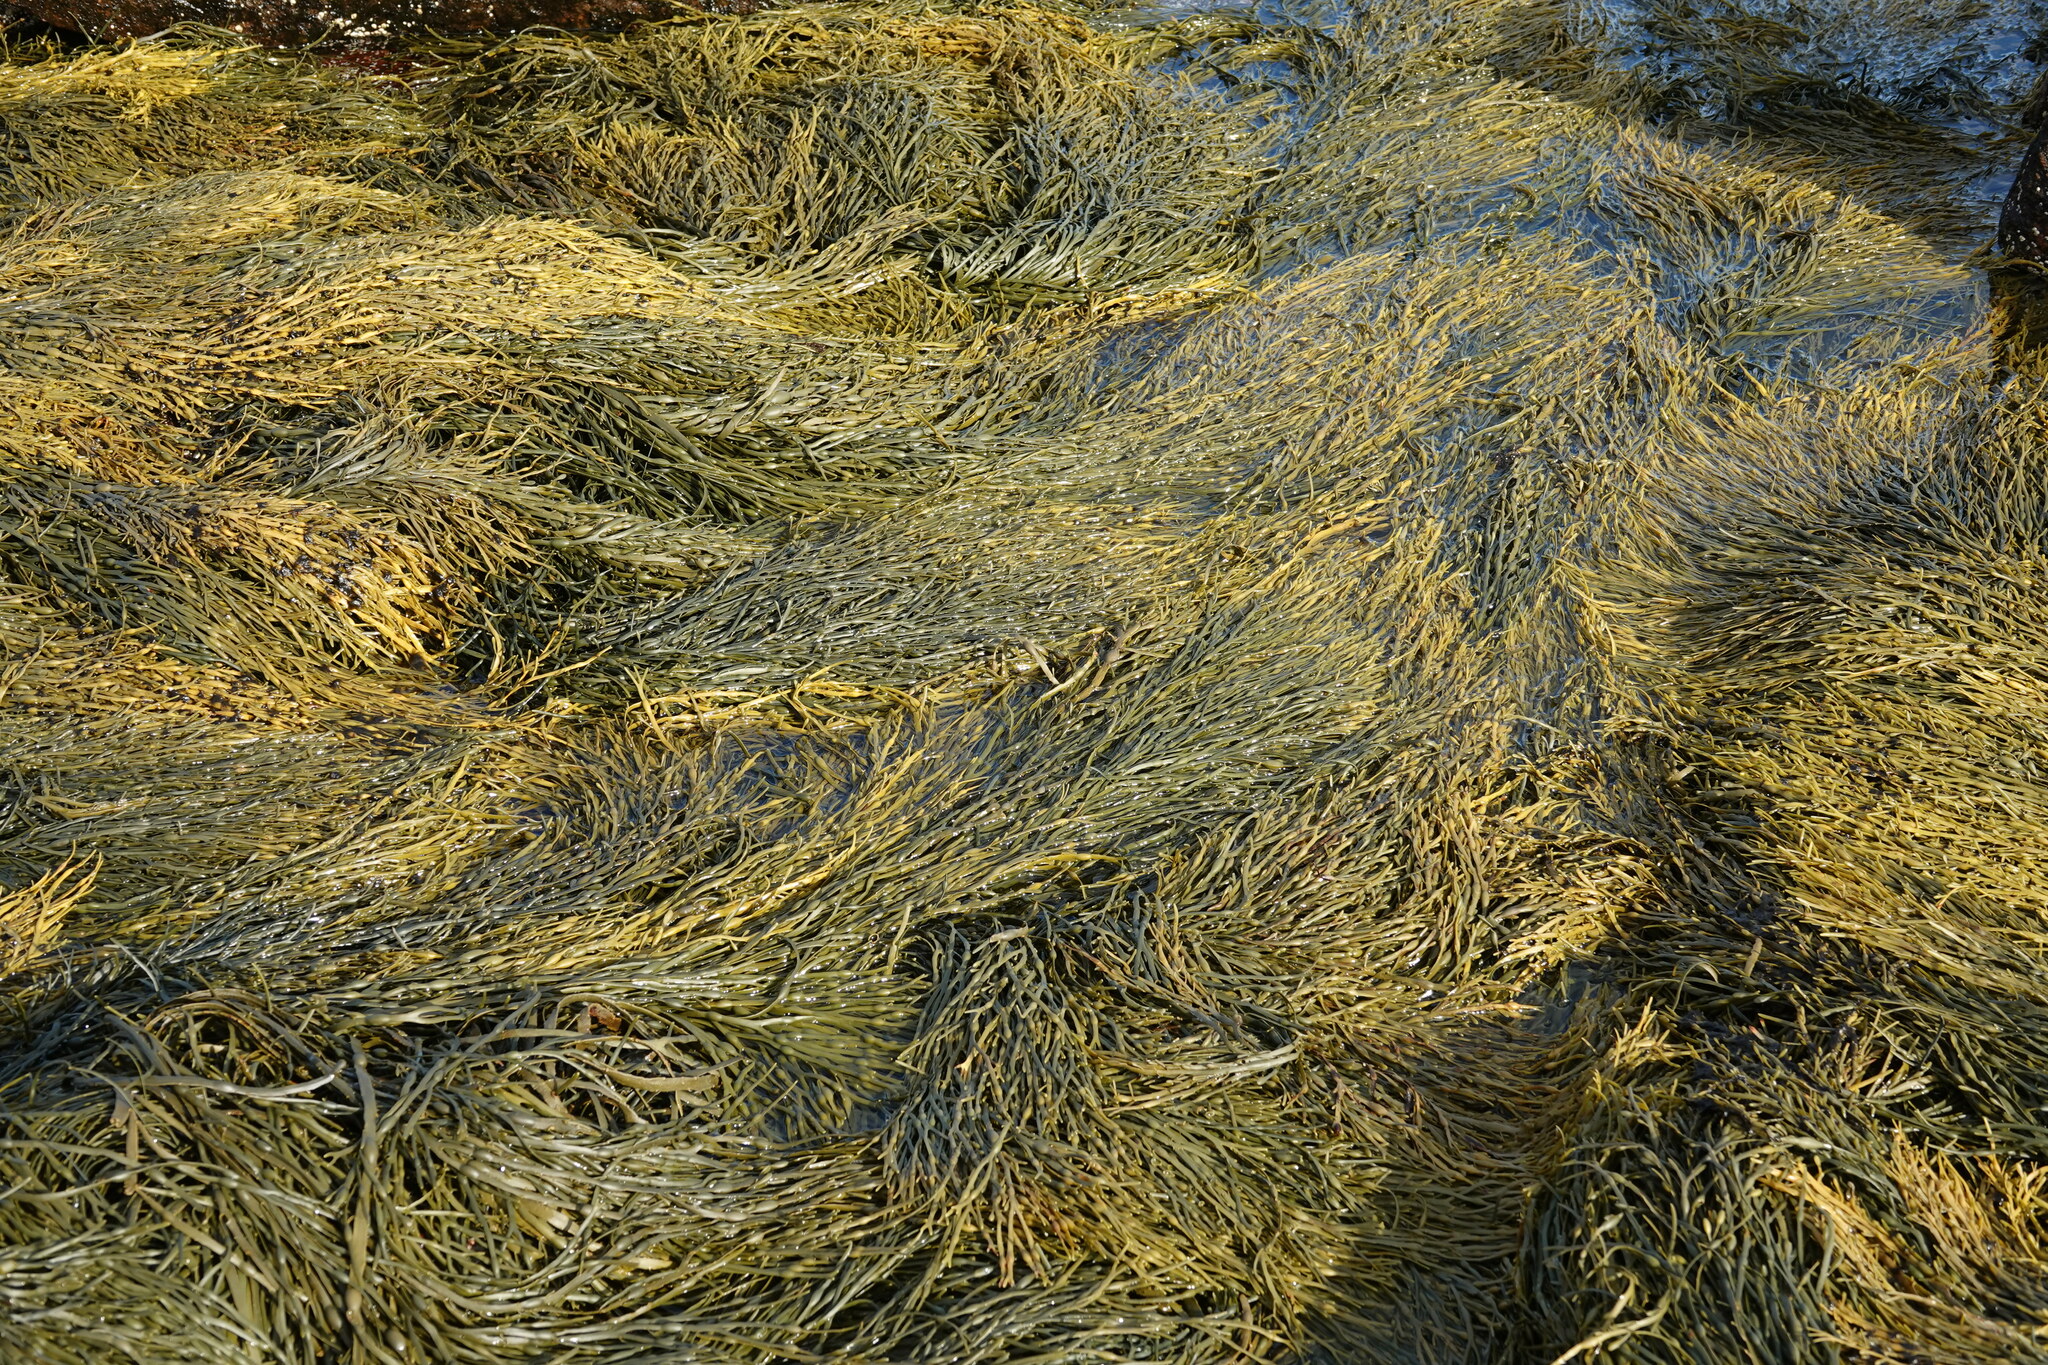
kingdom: Chromista
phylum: Ochrophyta
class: Phaeophyceae
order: Fucales
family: Fucaceae
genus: Ascophyllum
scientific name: Ascophyllum nodosum
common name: Knotted wrack
